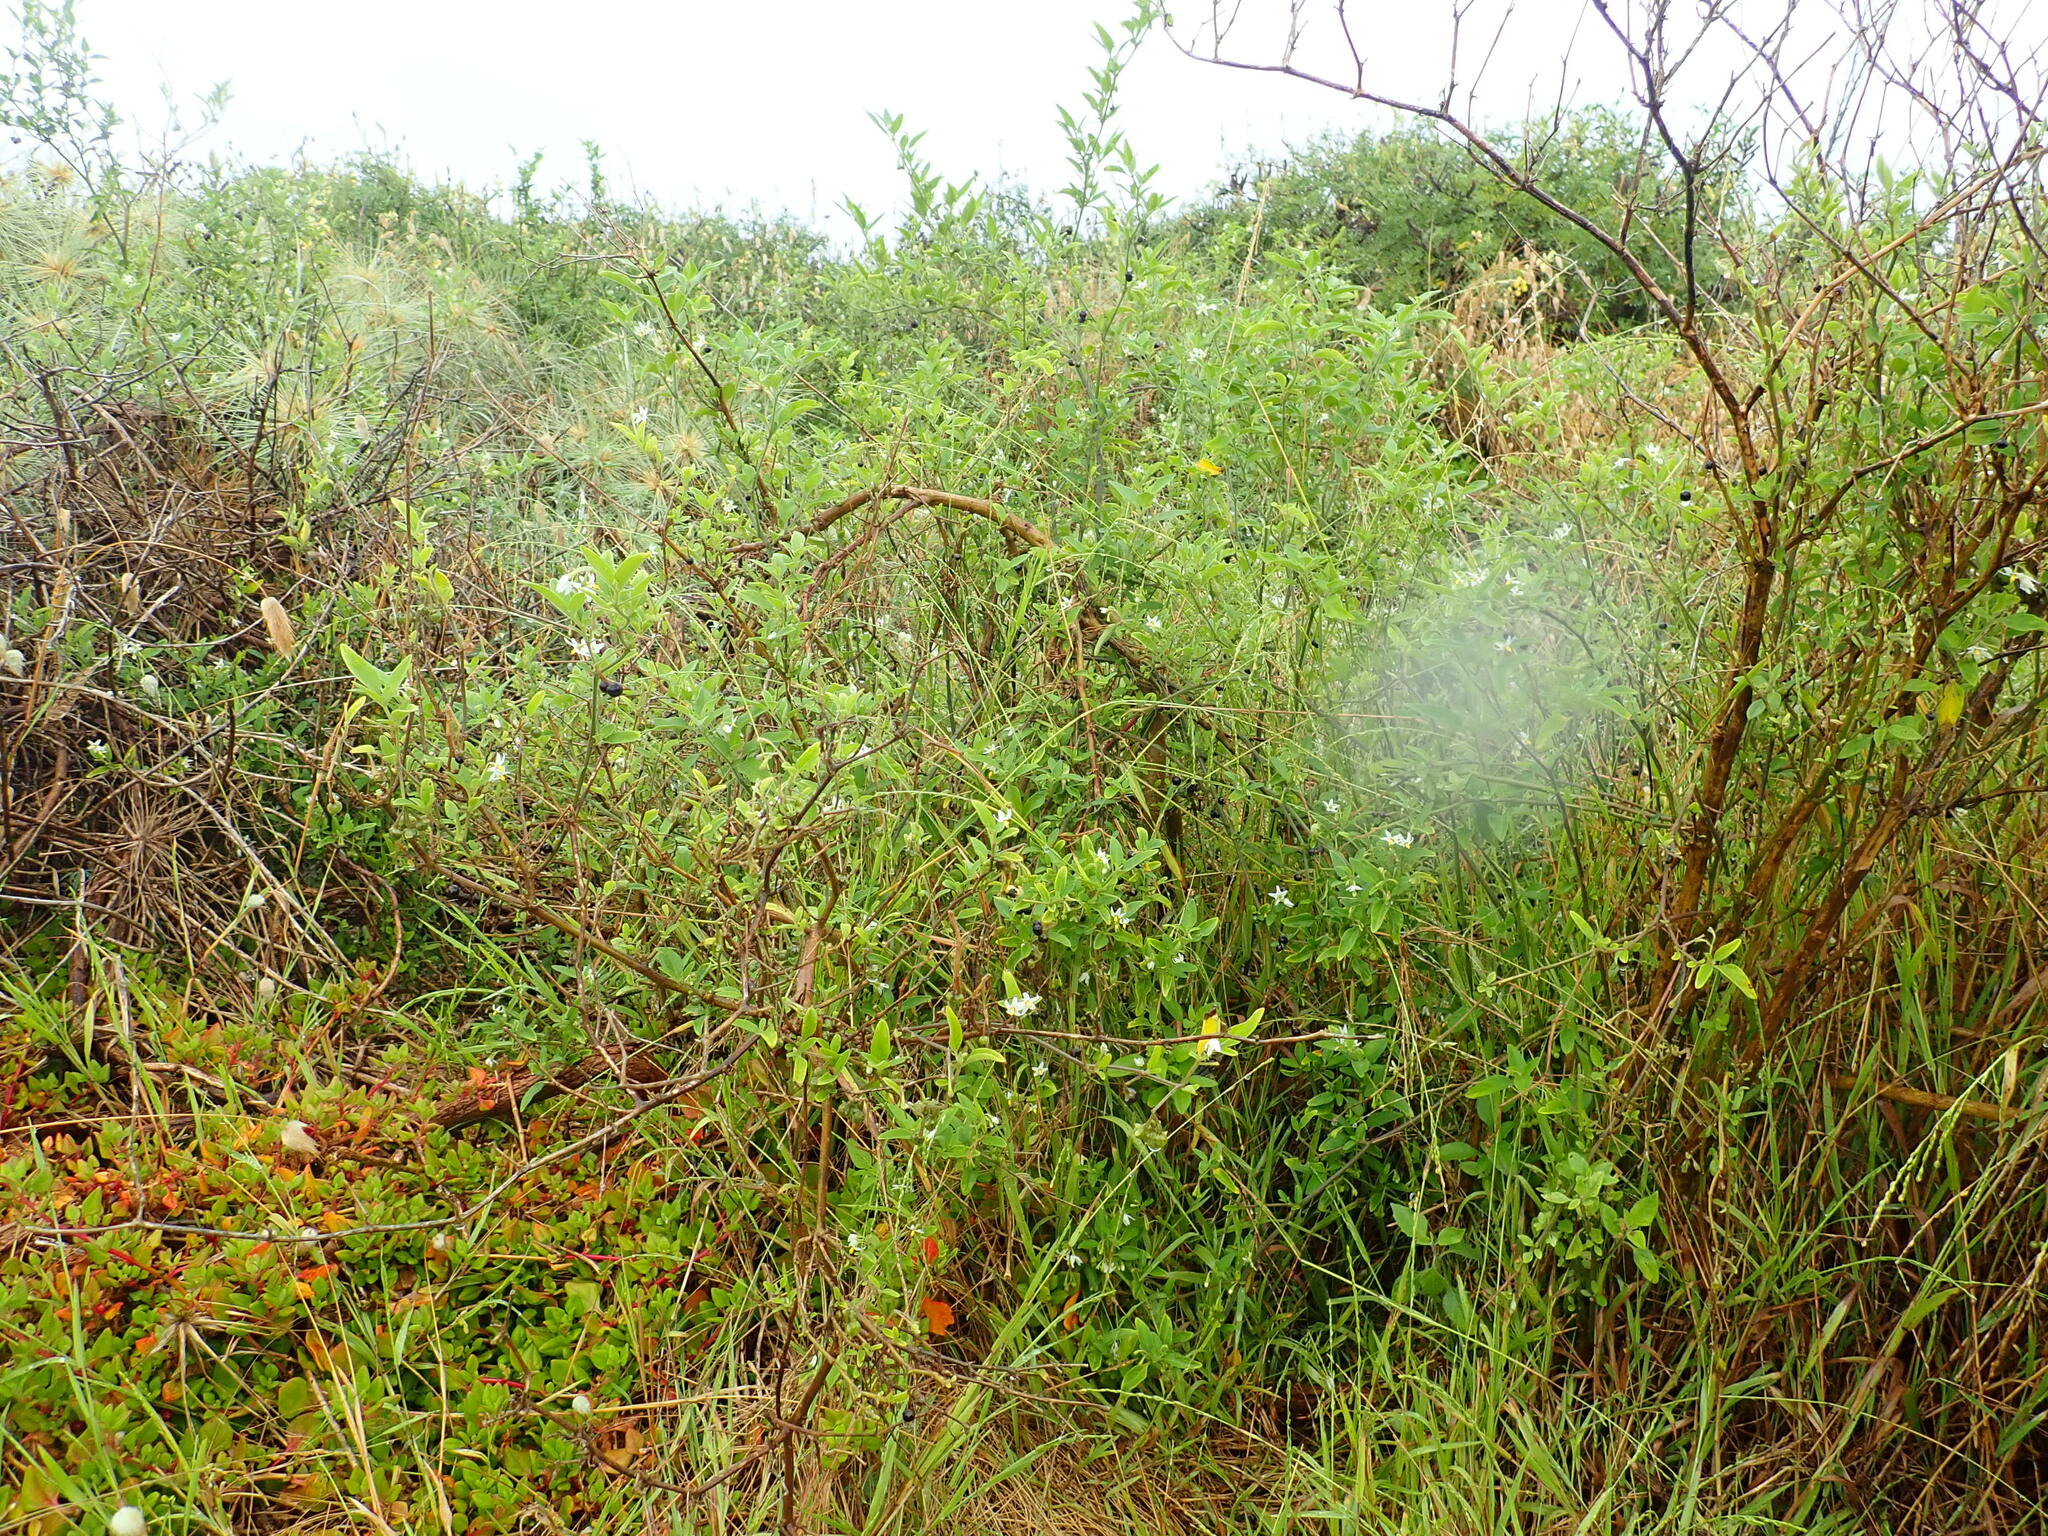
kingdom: Plantae
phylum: Tracheophyta
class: Magnoliopsida
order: Solanales
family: Solanaceae
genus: Solanum
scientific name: Solanum chenopodioides
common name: Tall nightshade
